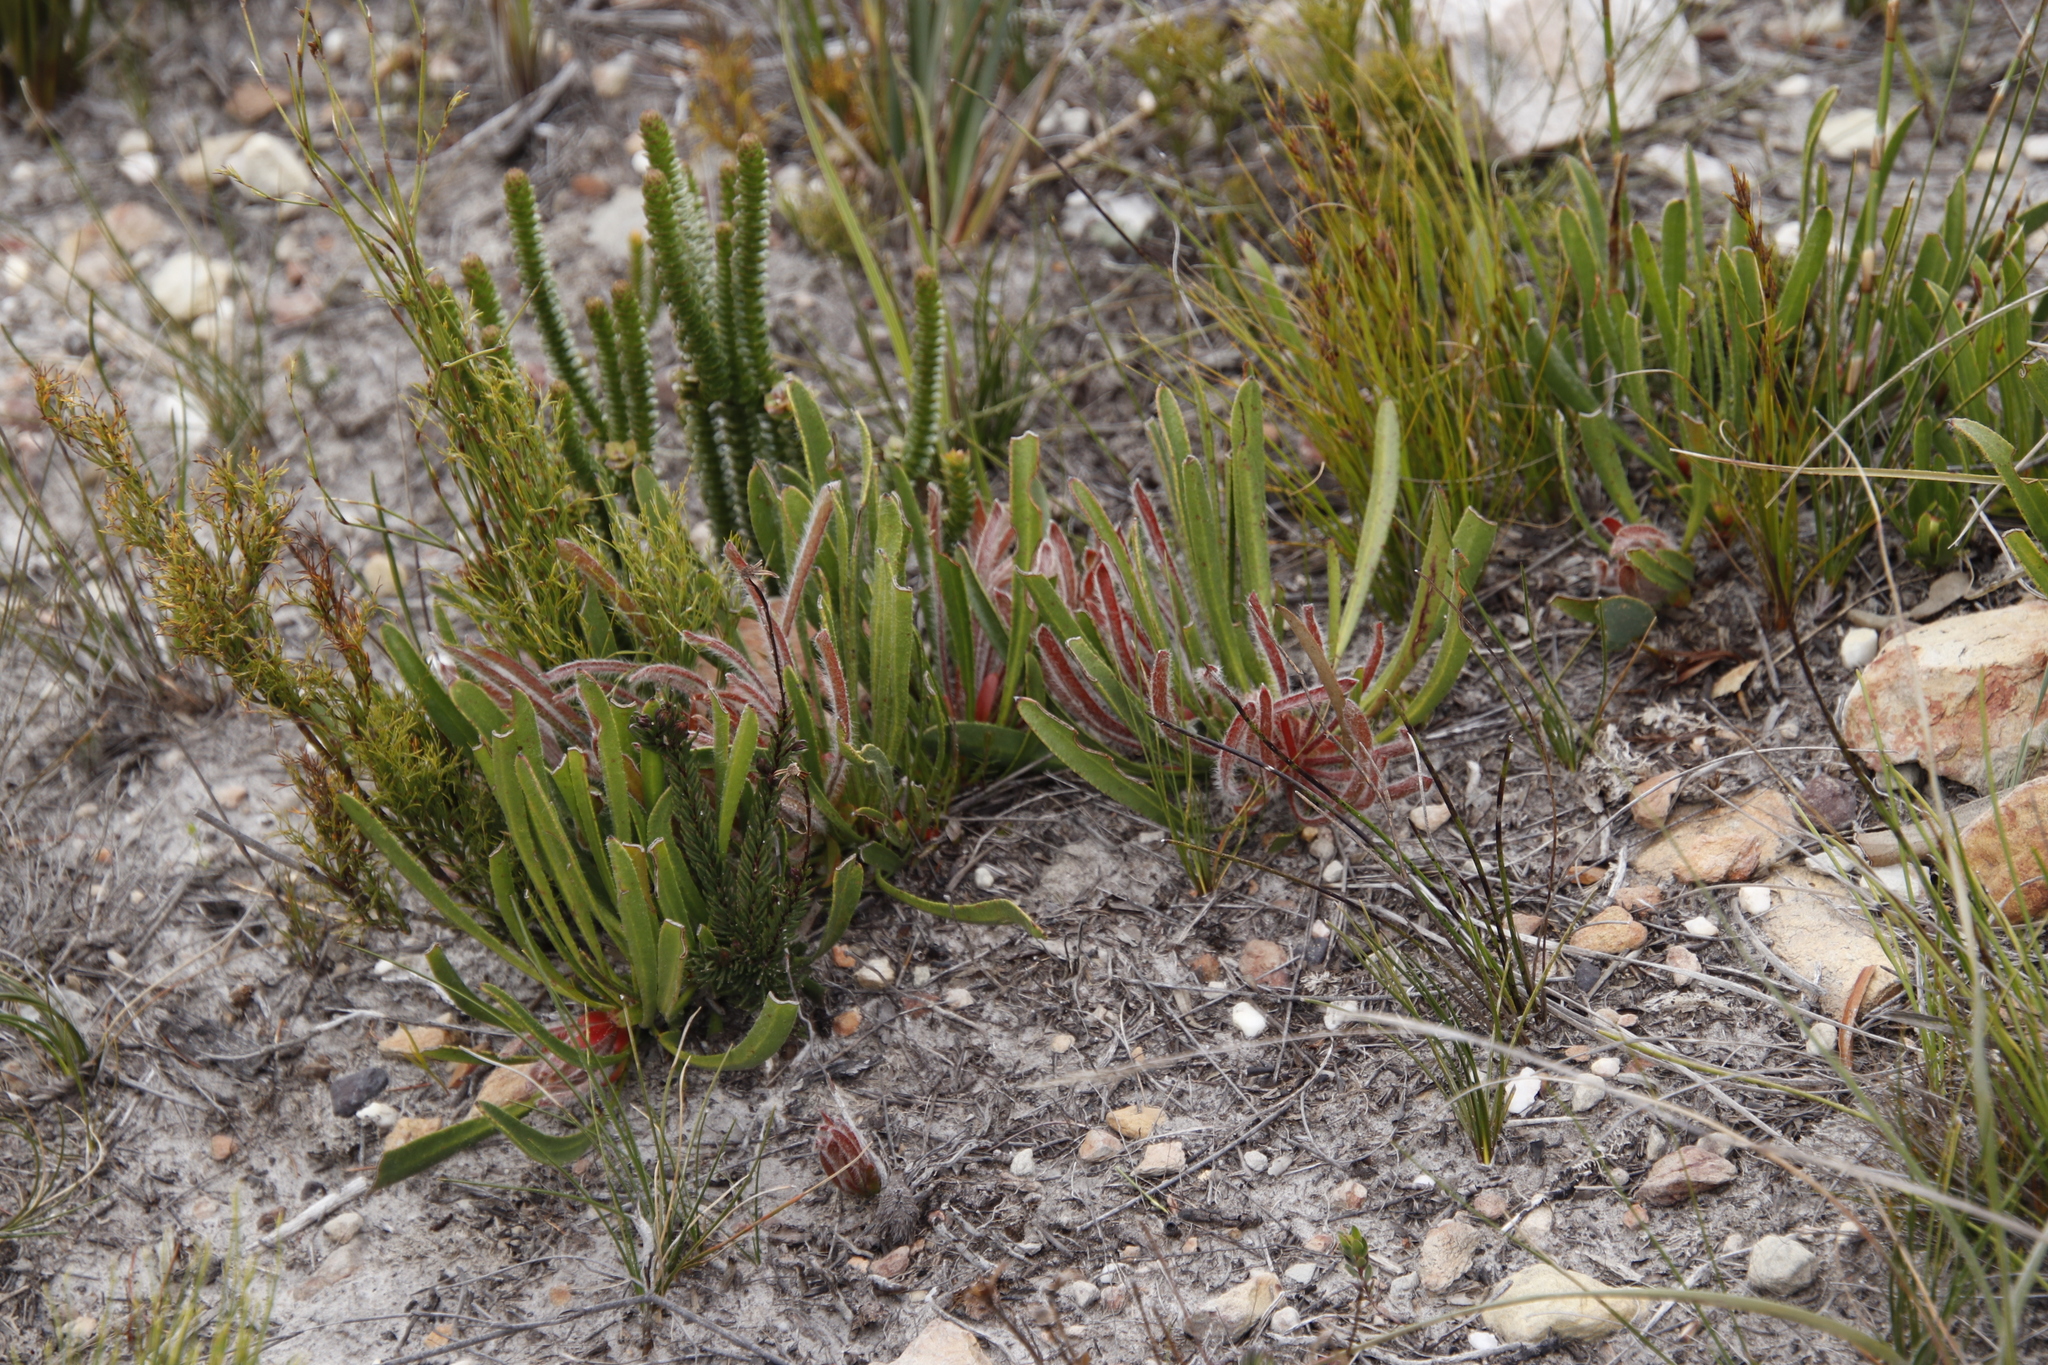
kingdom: Plantae
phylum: Tracheophyta
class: Magnoliopsida
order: Proteales
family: Proteaceae
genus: Protea
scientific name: Protea aspera
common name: Rough-leaf sugarbush
